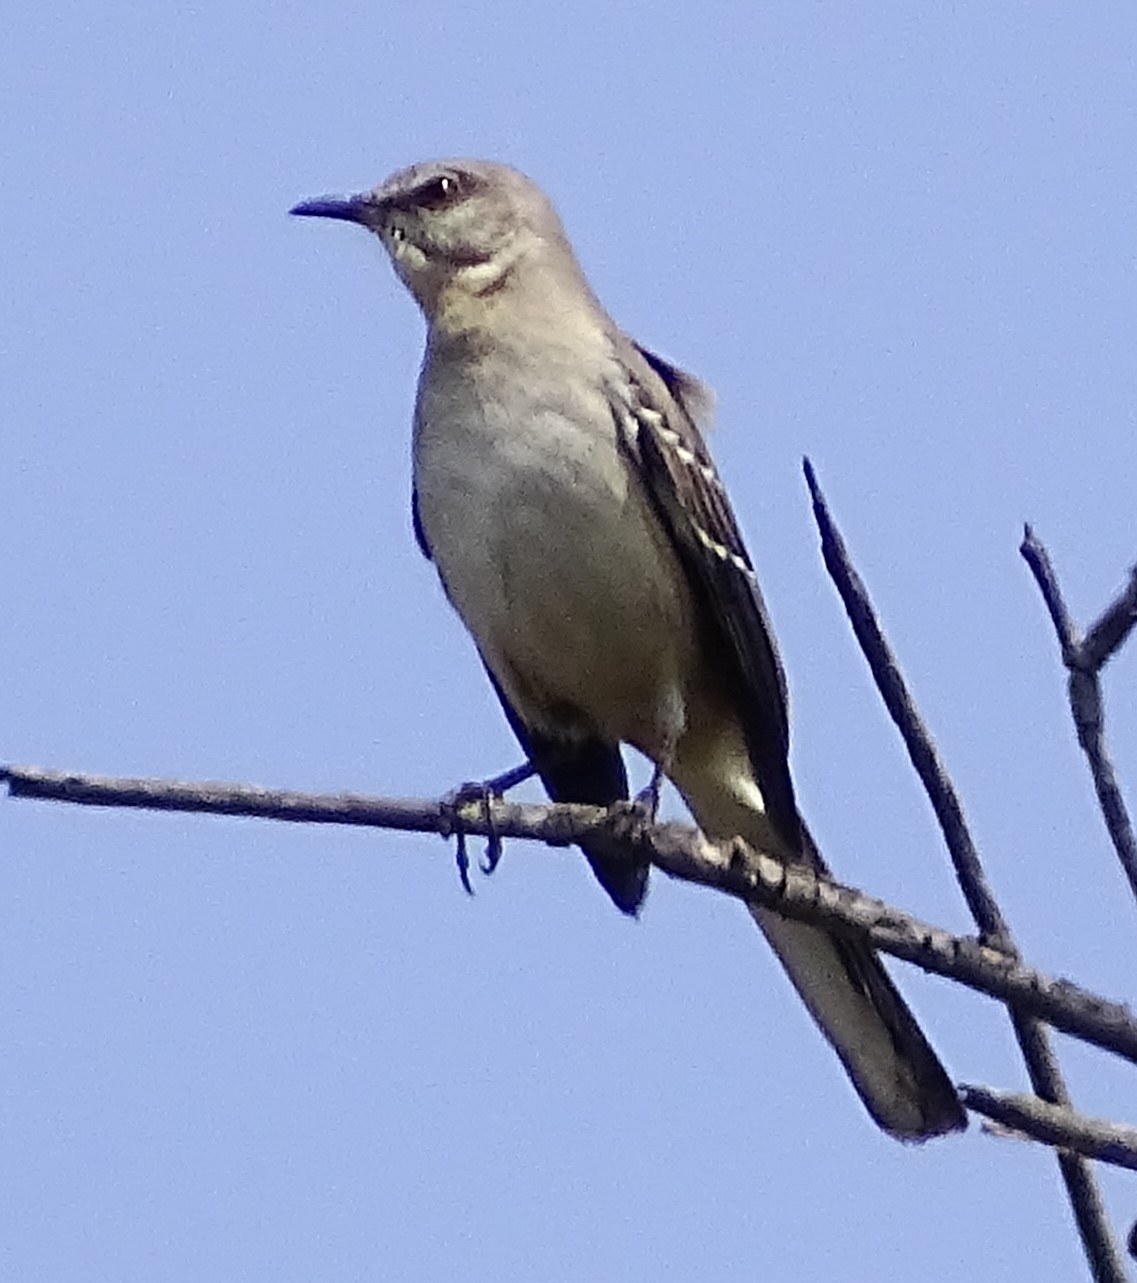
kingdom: Animalia
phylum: Chordata
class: Aves
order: Passeriformes
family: Mimidae
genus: Mimus
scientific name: Mimus polyglottos
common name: Northern mockingbird
